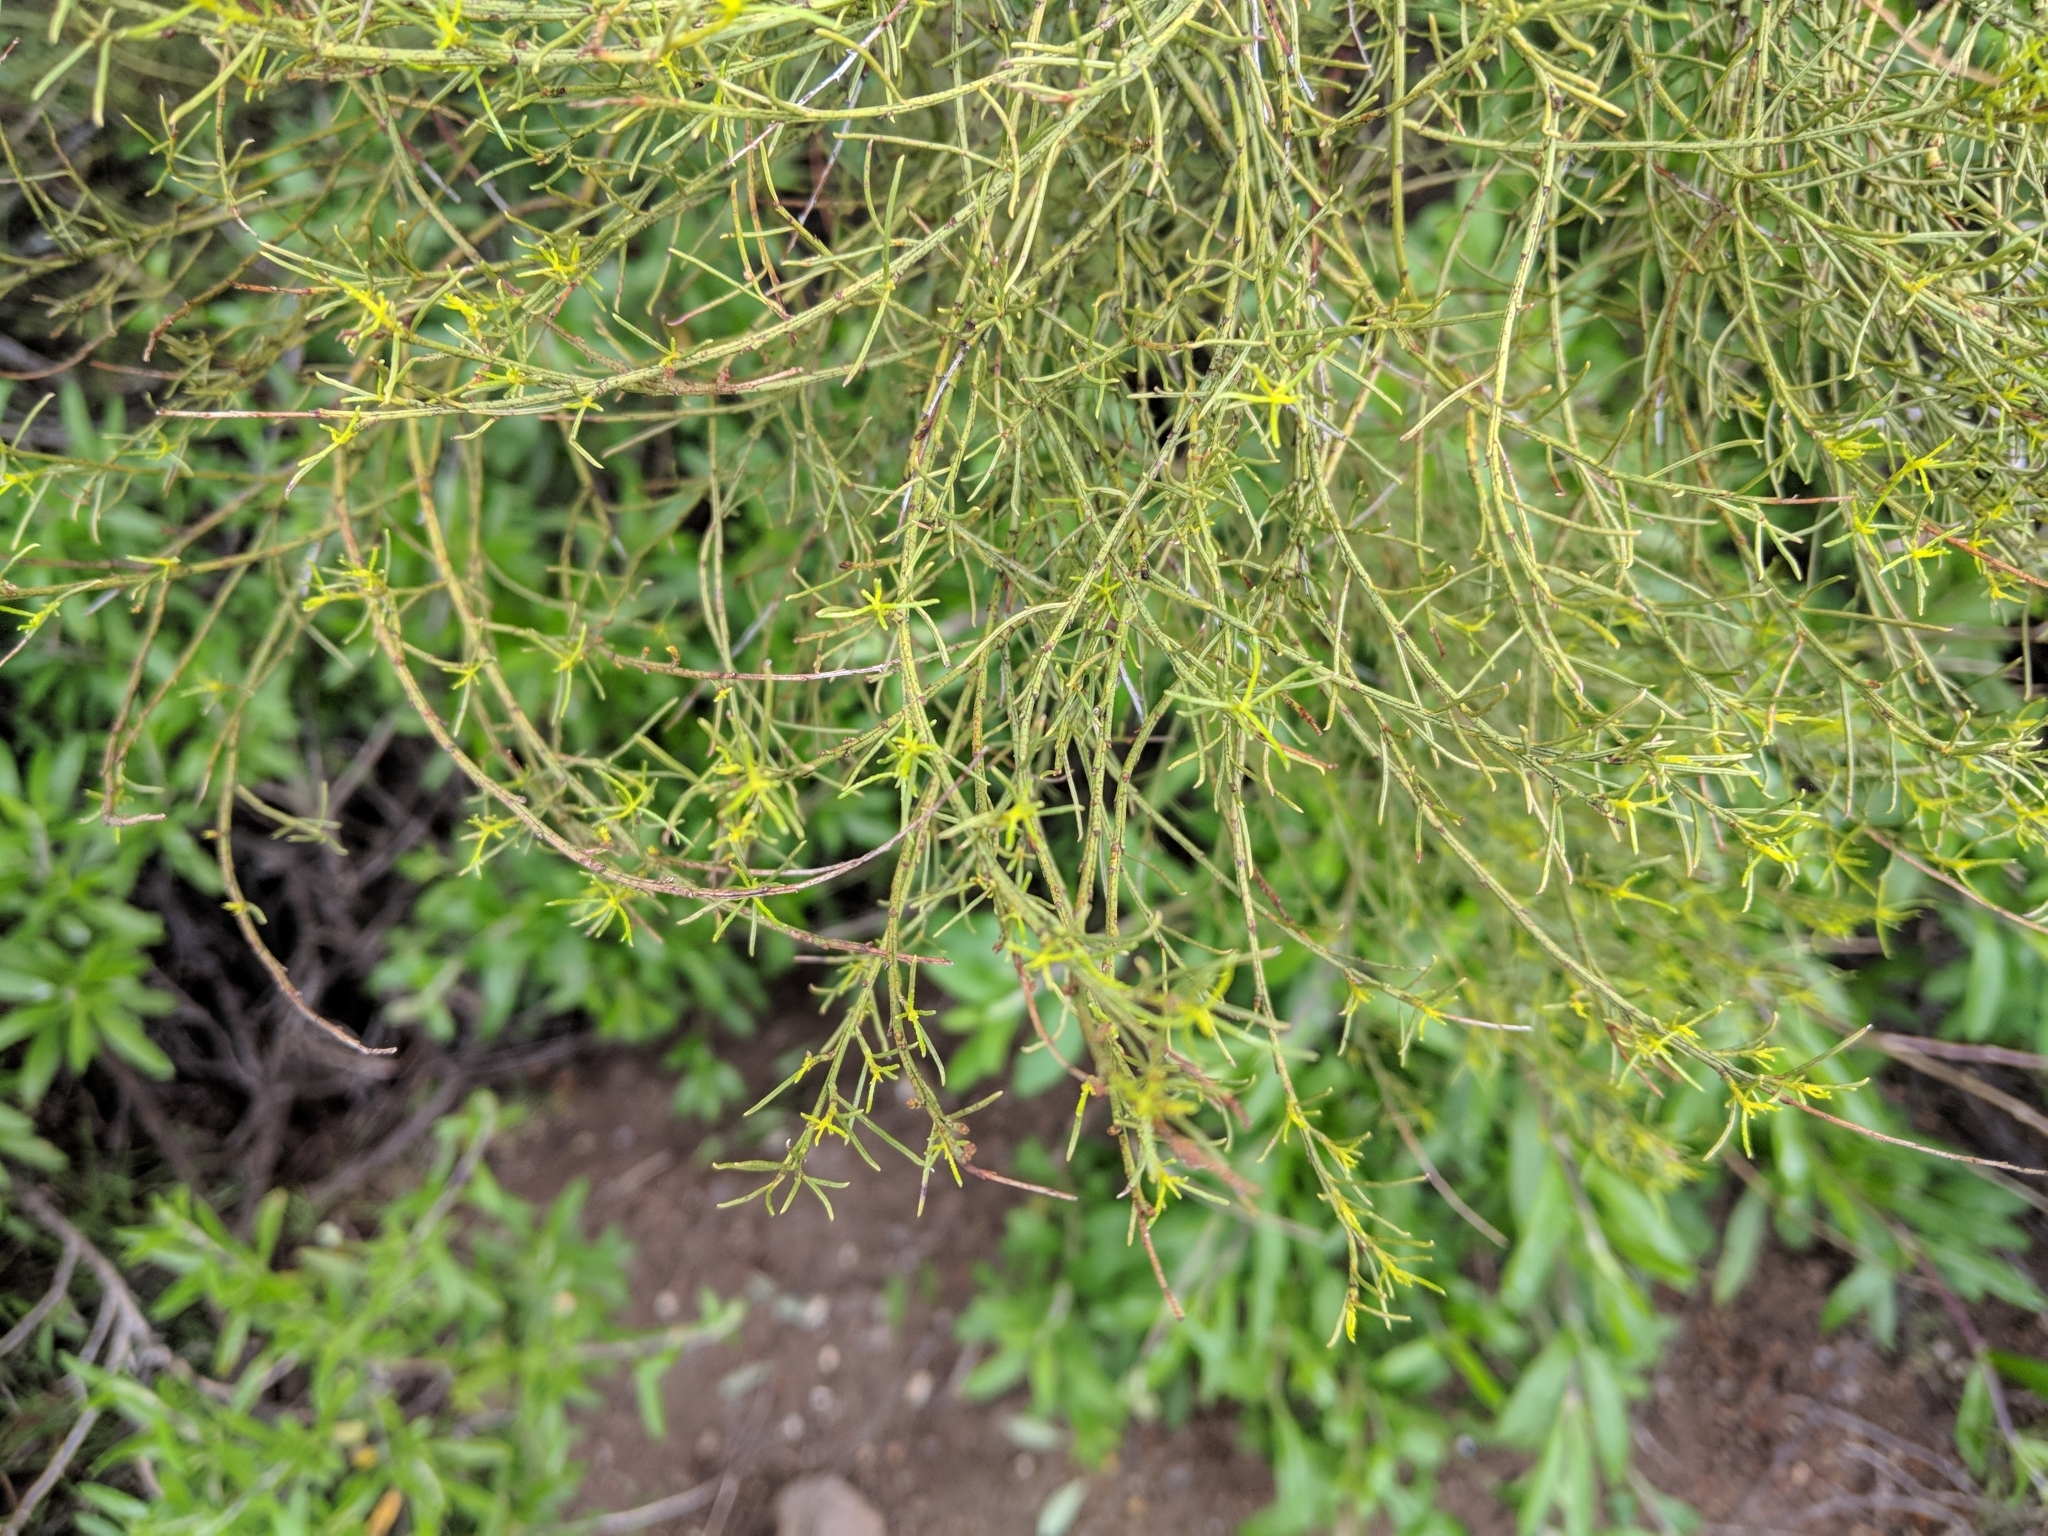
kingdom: Plantae
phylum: Tracheophyta
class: Magnoliopsida
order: Rosales
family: Rosaceae
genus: Adenostoma
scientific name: Adenostoma sparsifolium
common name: Red shank
